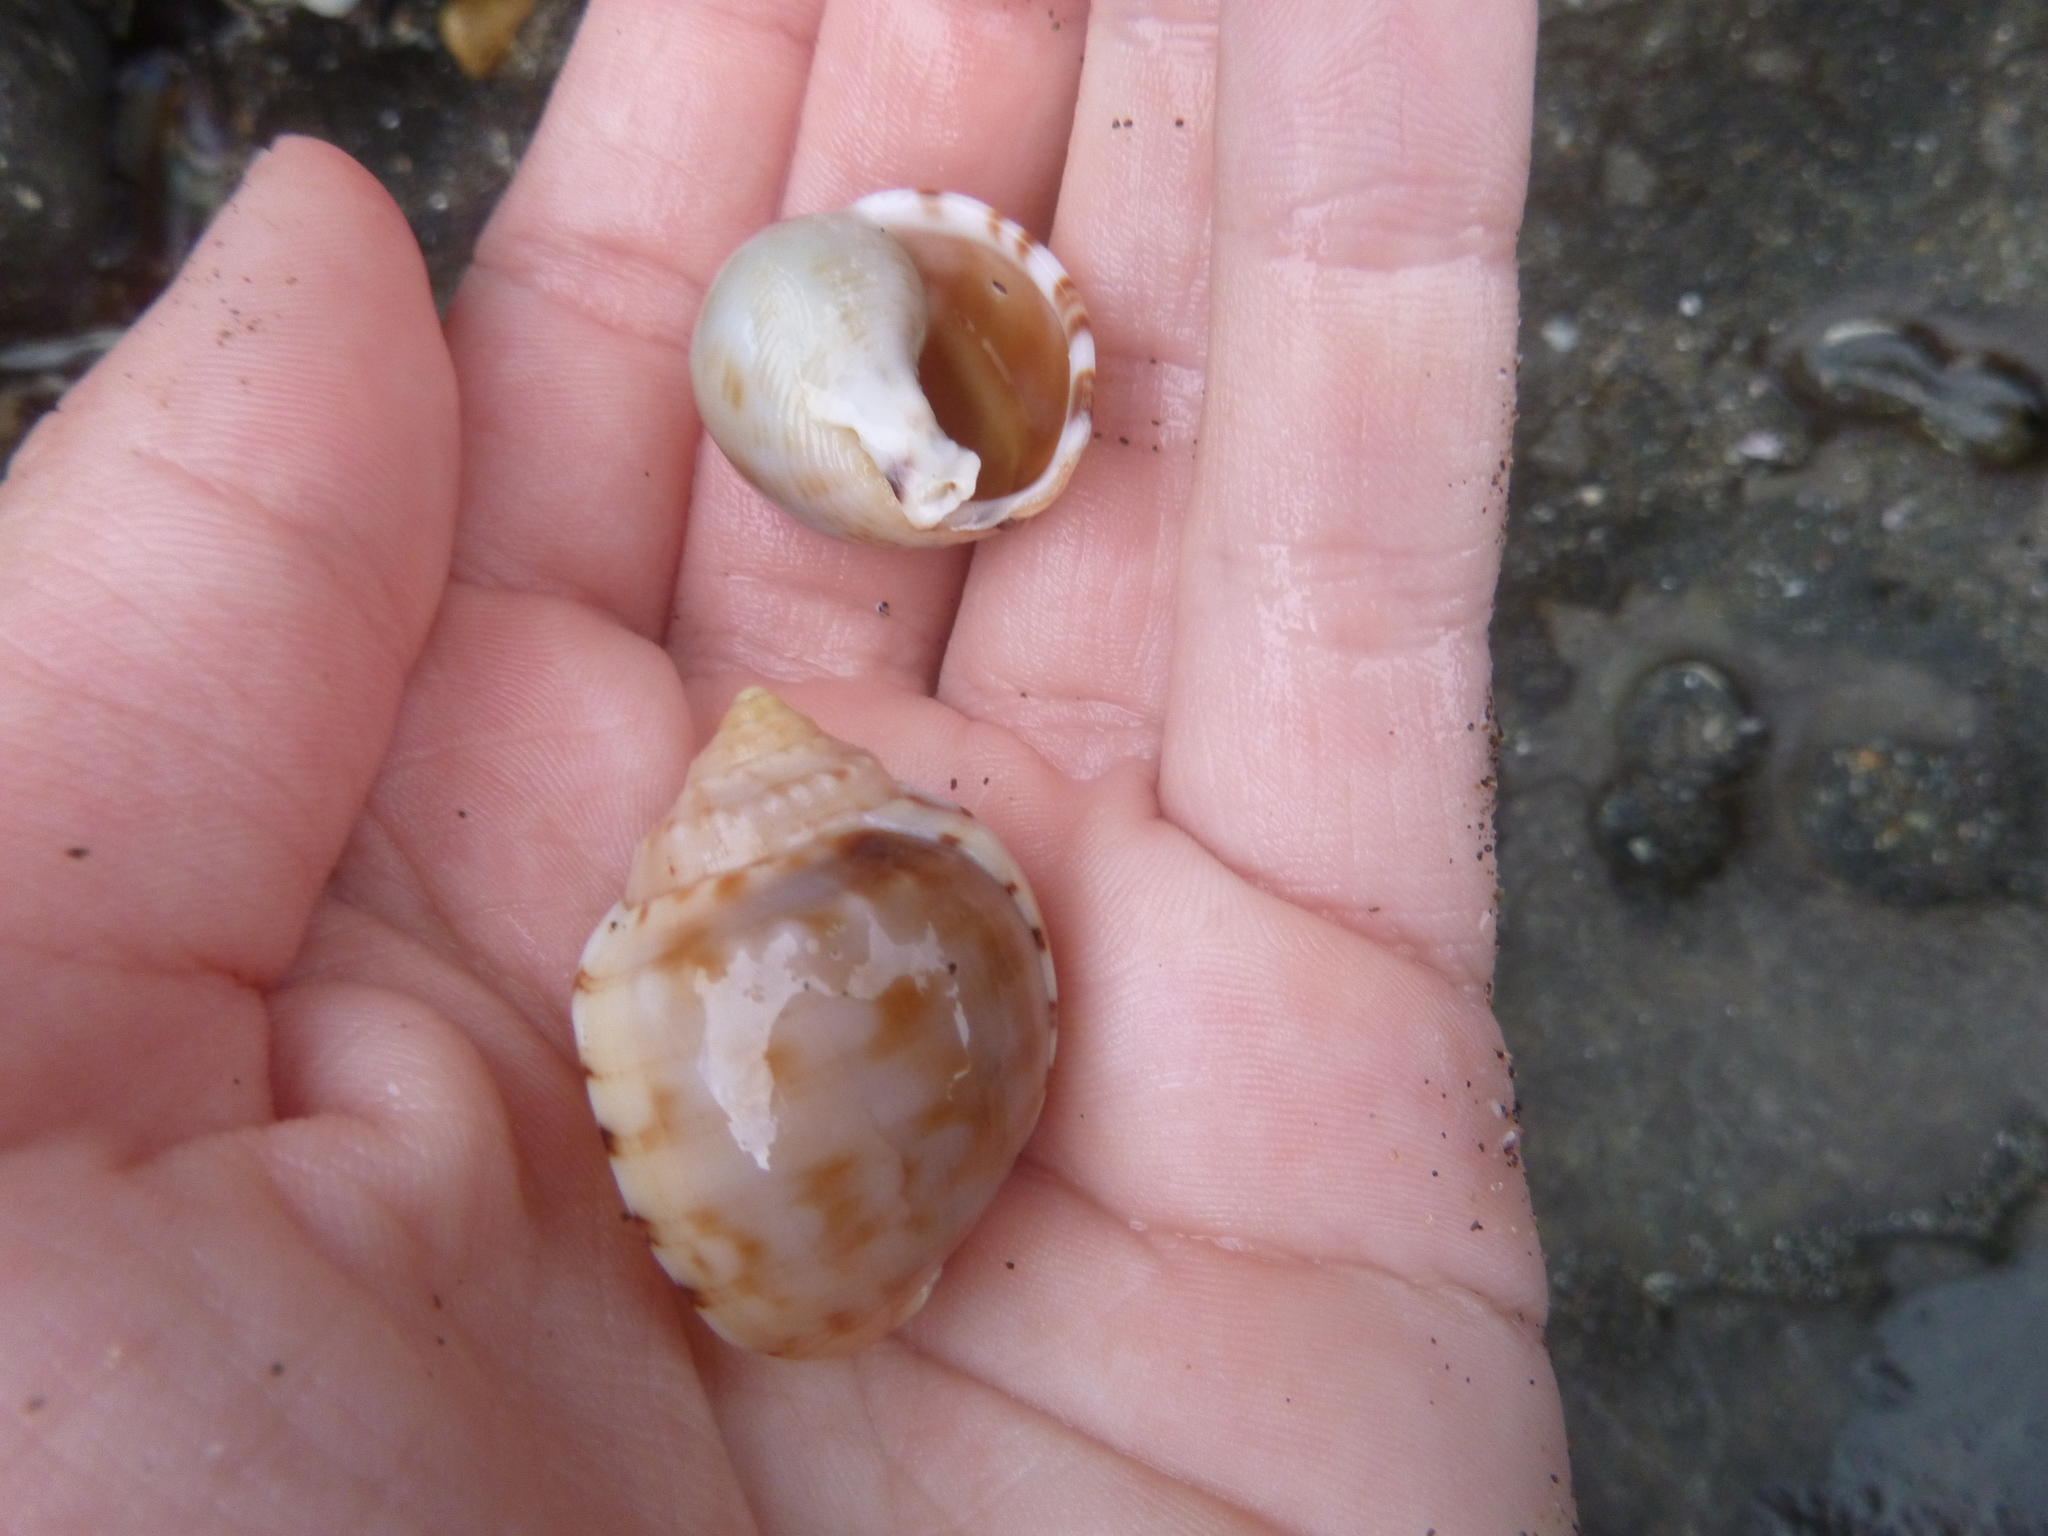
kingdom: Animalia
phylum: Mollusca
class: Gastropoda
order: Littorinimorpha
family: Cassidae
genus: Semicassis
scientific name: Semicassis pyrum
